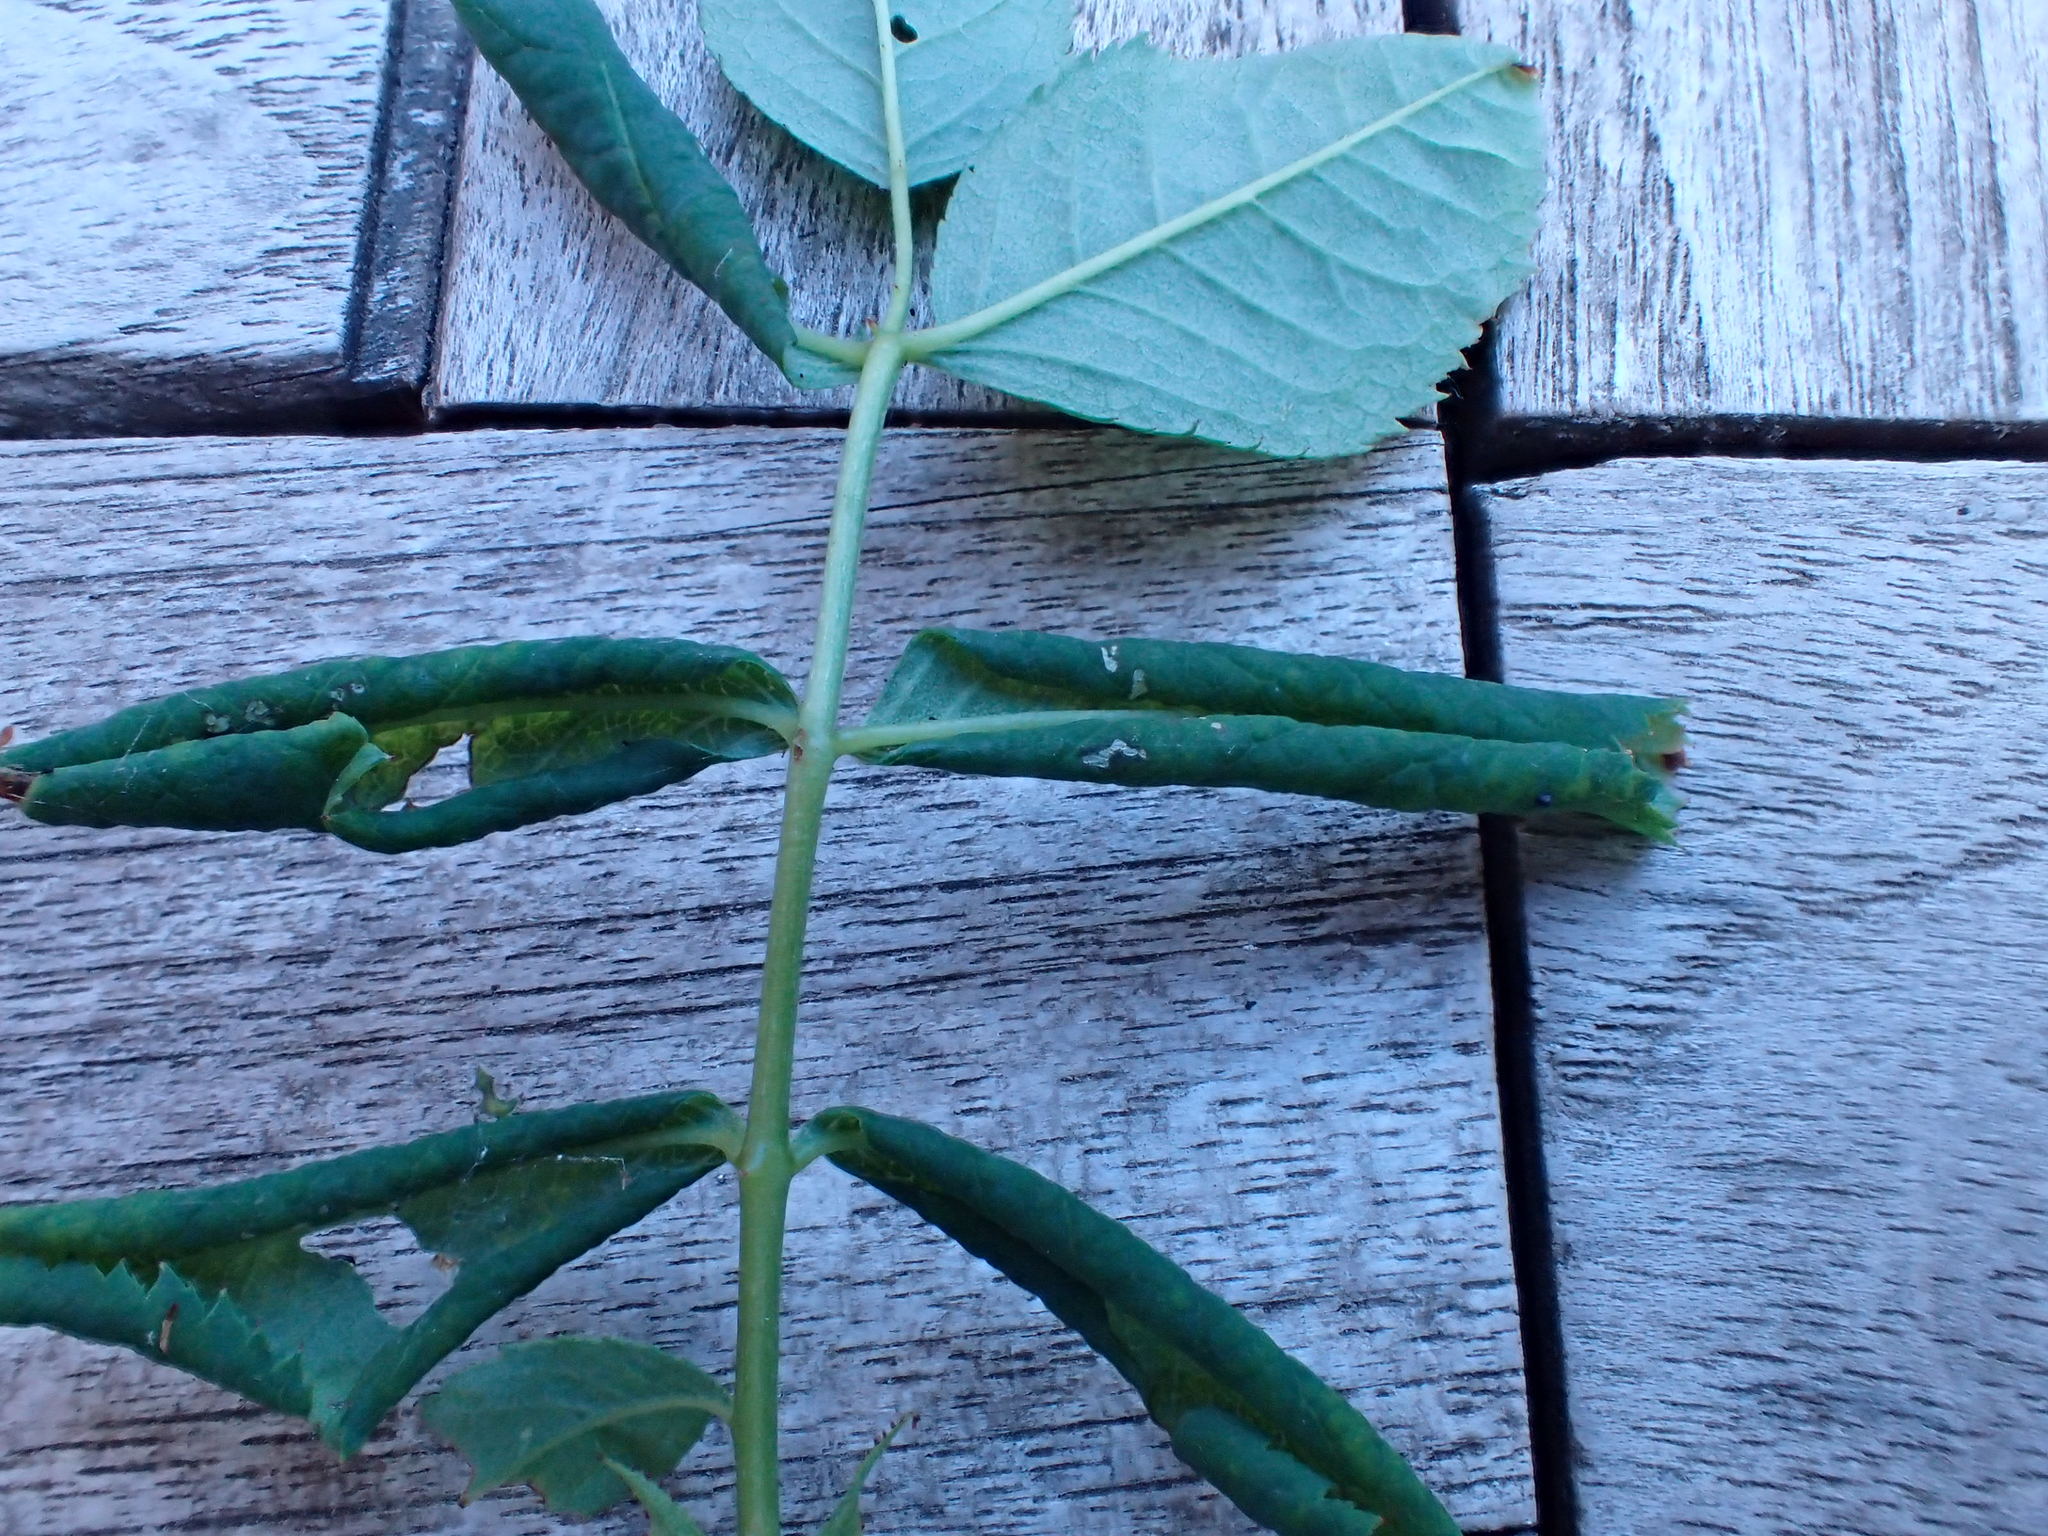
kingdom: Animalia
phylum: Arthropoda
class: Insecta
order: Hymenoptera
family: Tenthredinidae
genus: Blennocampa
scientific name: Blennocampa phyllocolpa
